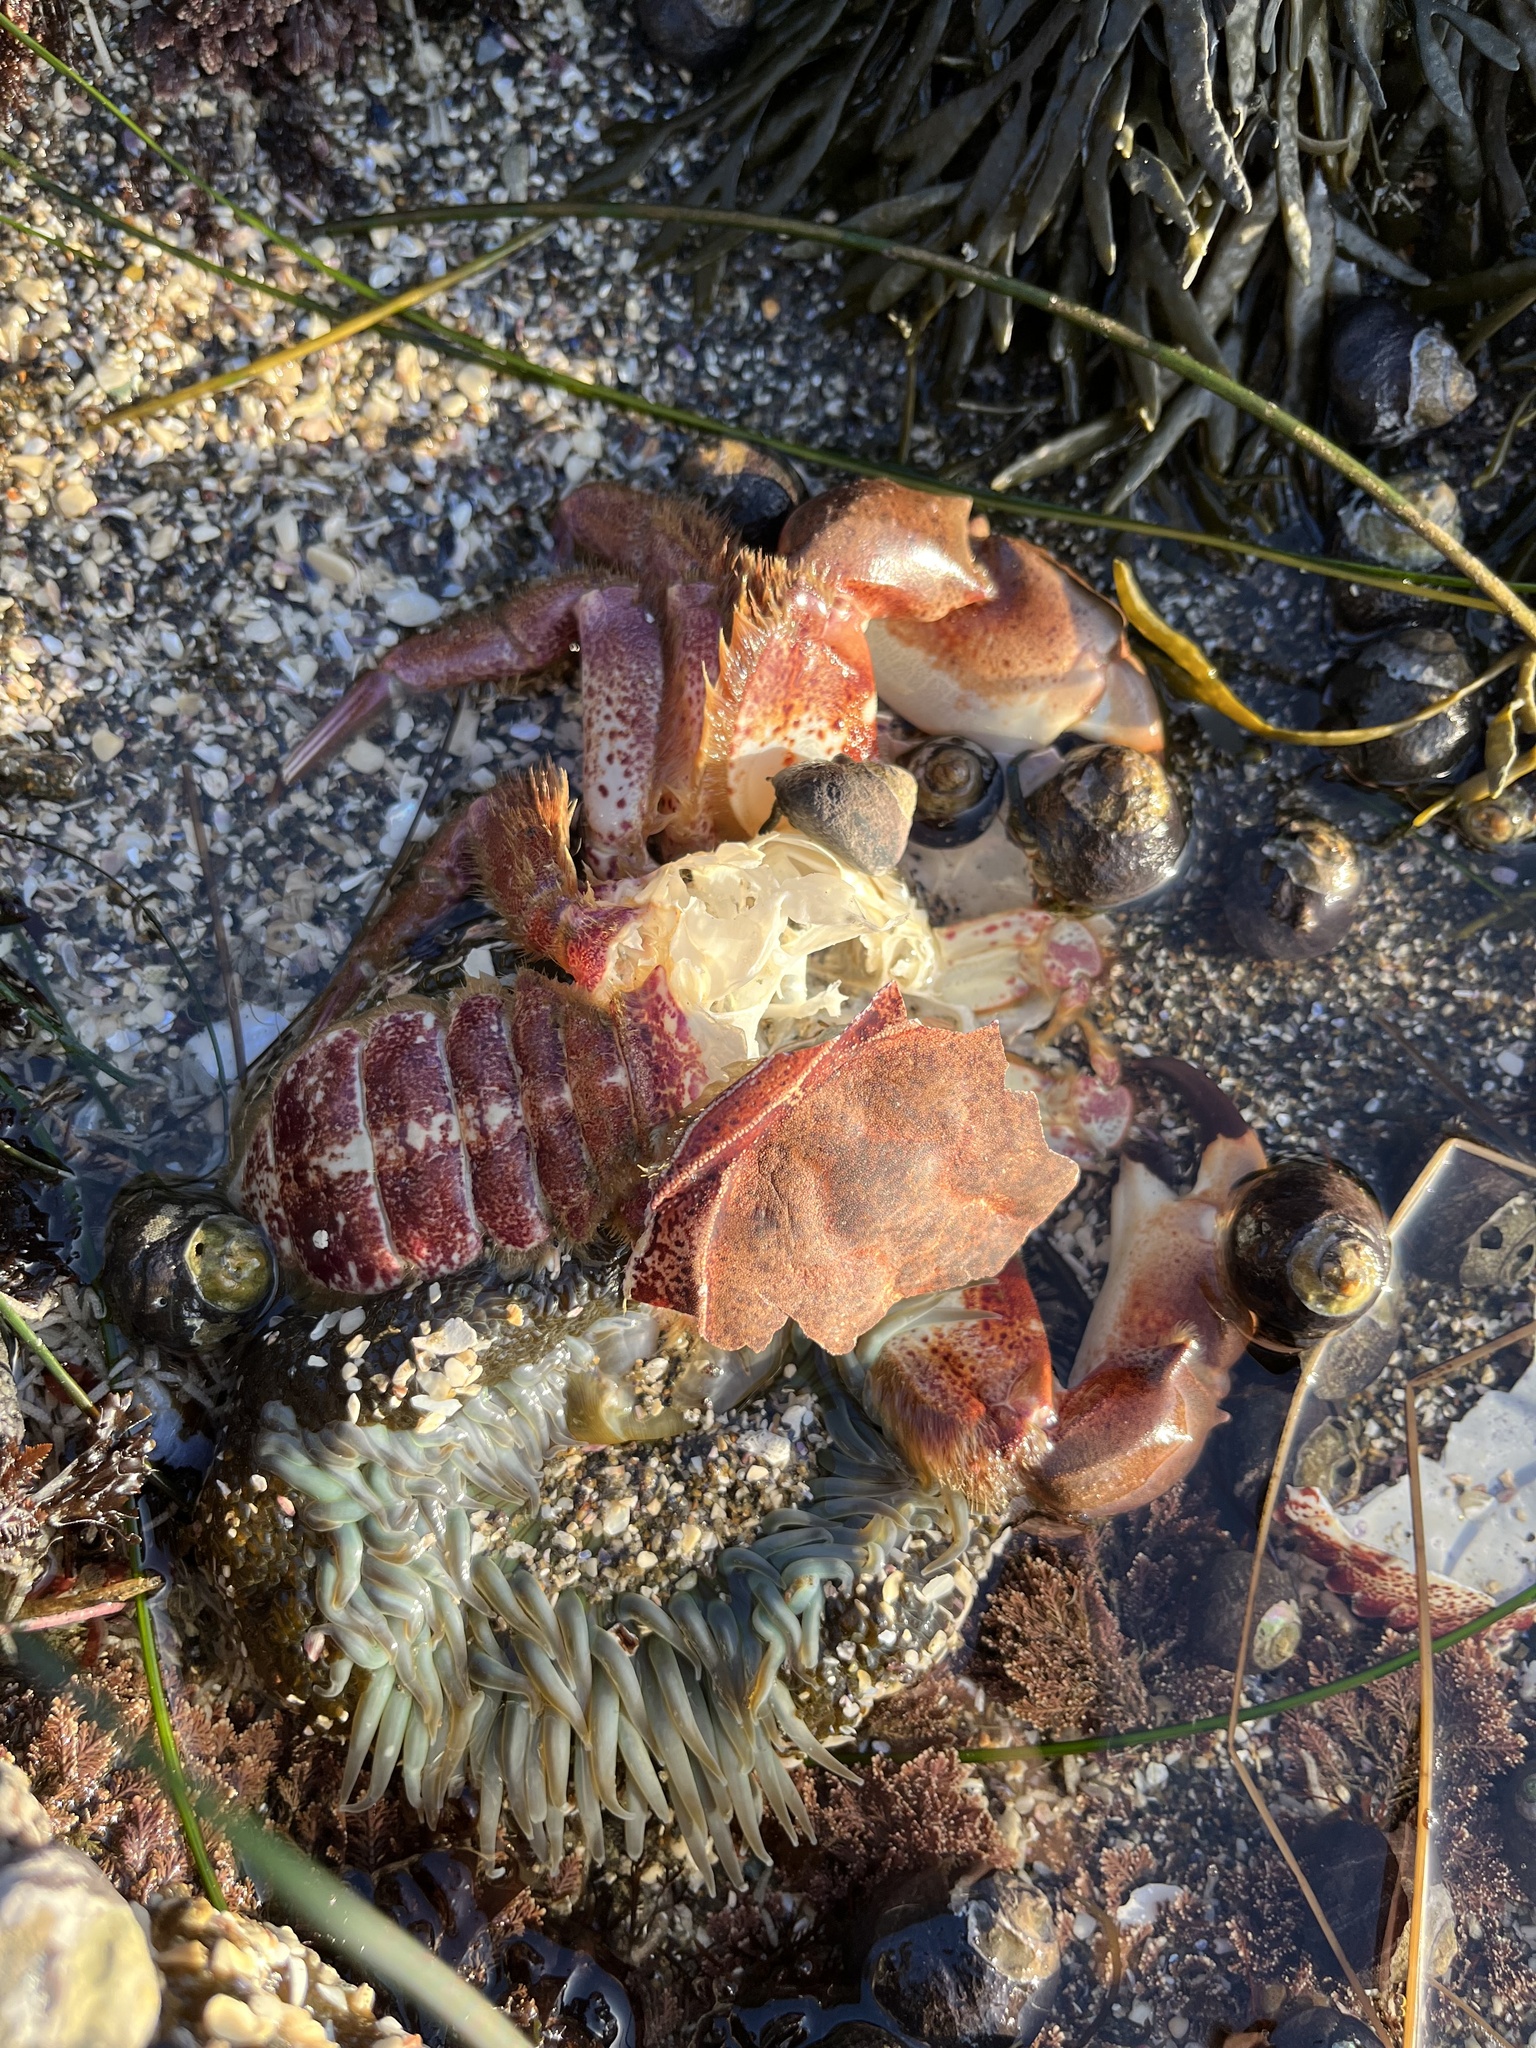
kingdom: Animalia
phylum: Arthropoda
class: Malacostraca
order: Decapoda
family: Cancridae
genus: Romaleon
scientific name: Romaleon antennarium
